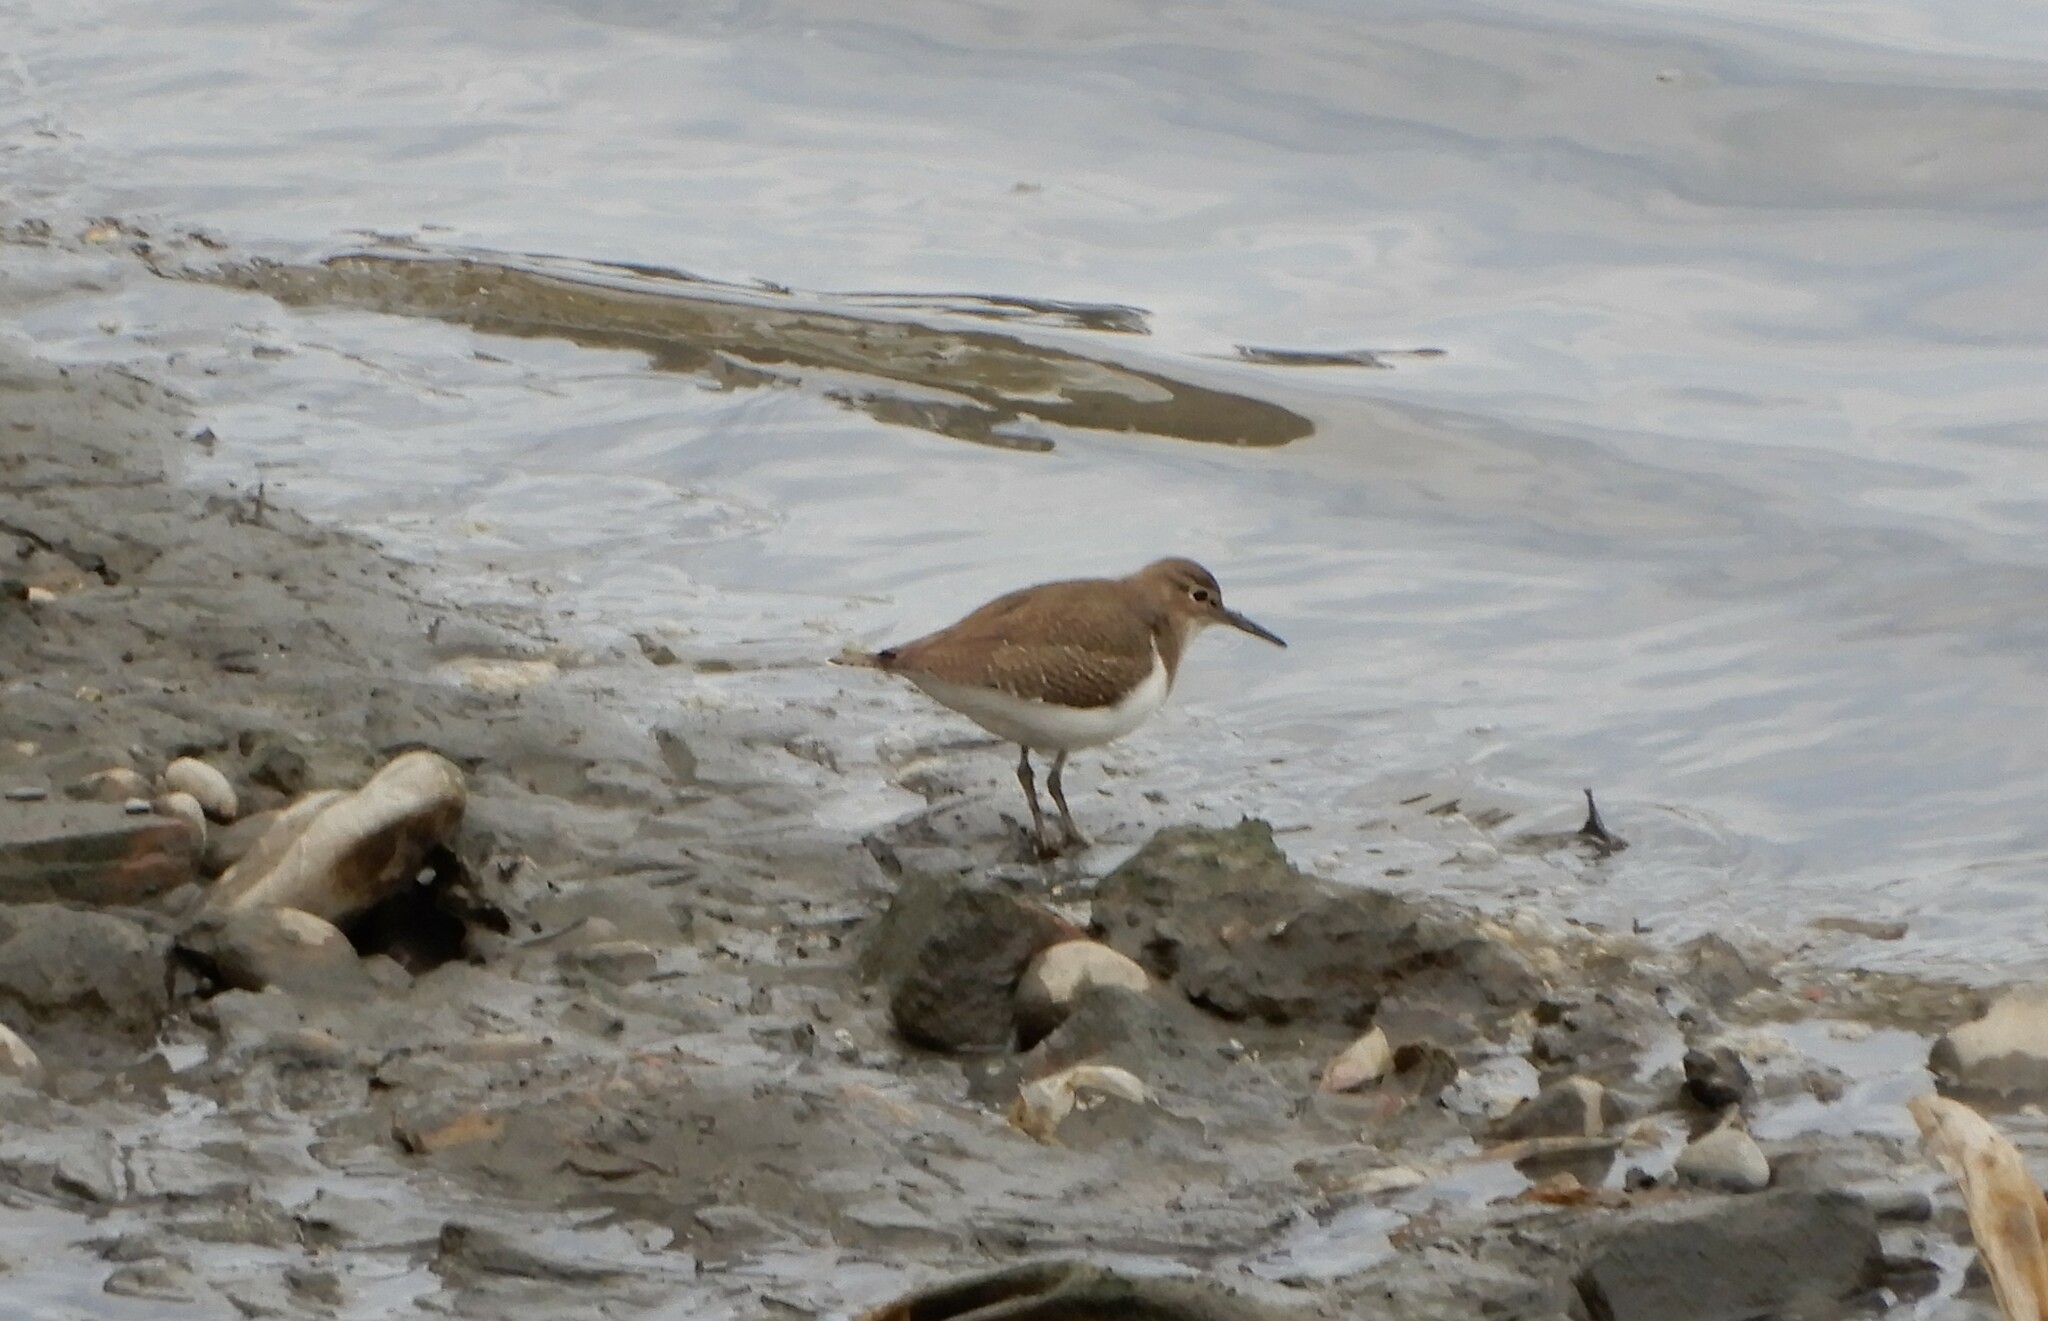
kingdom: Animalia
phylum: Chordata
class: Aves
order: Charadriiformes
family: Scolopacidae
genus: Actitis
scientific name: Actitis hypoleucos
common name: Common sandpiper
